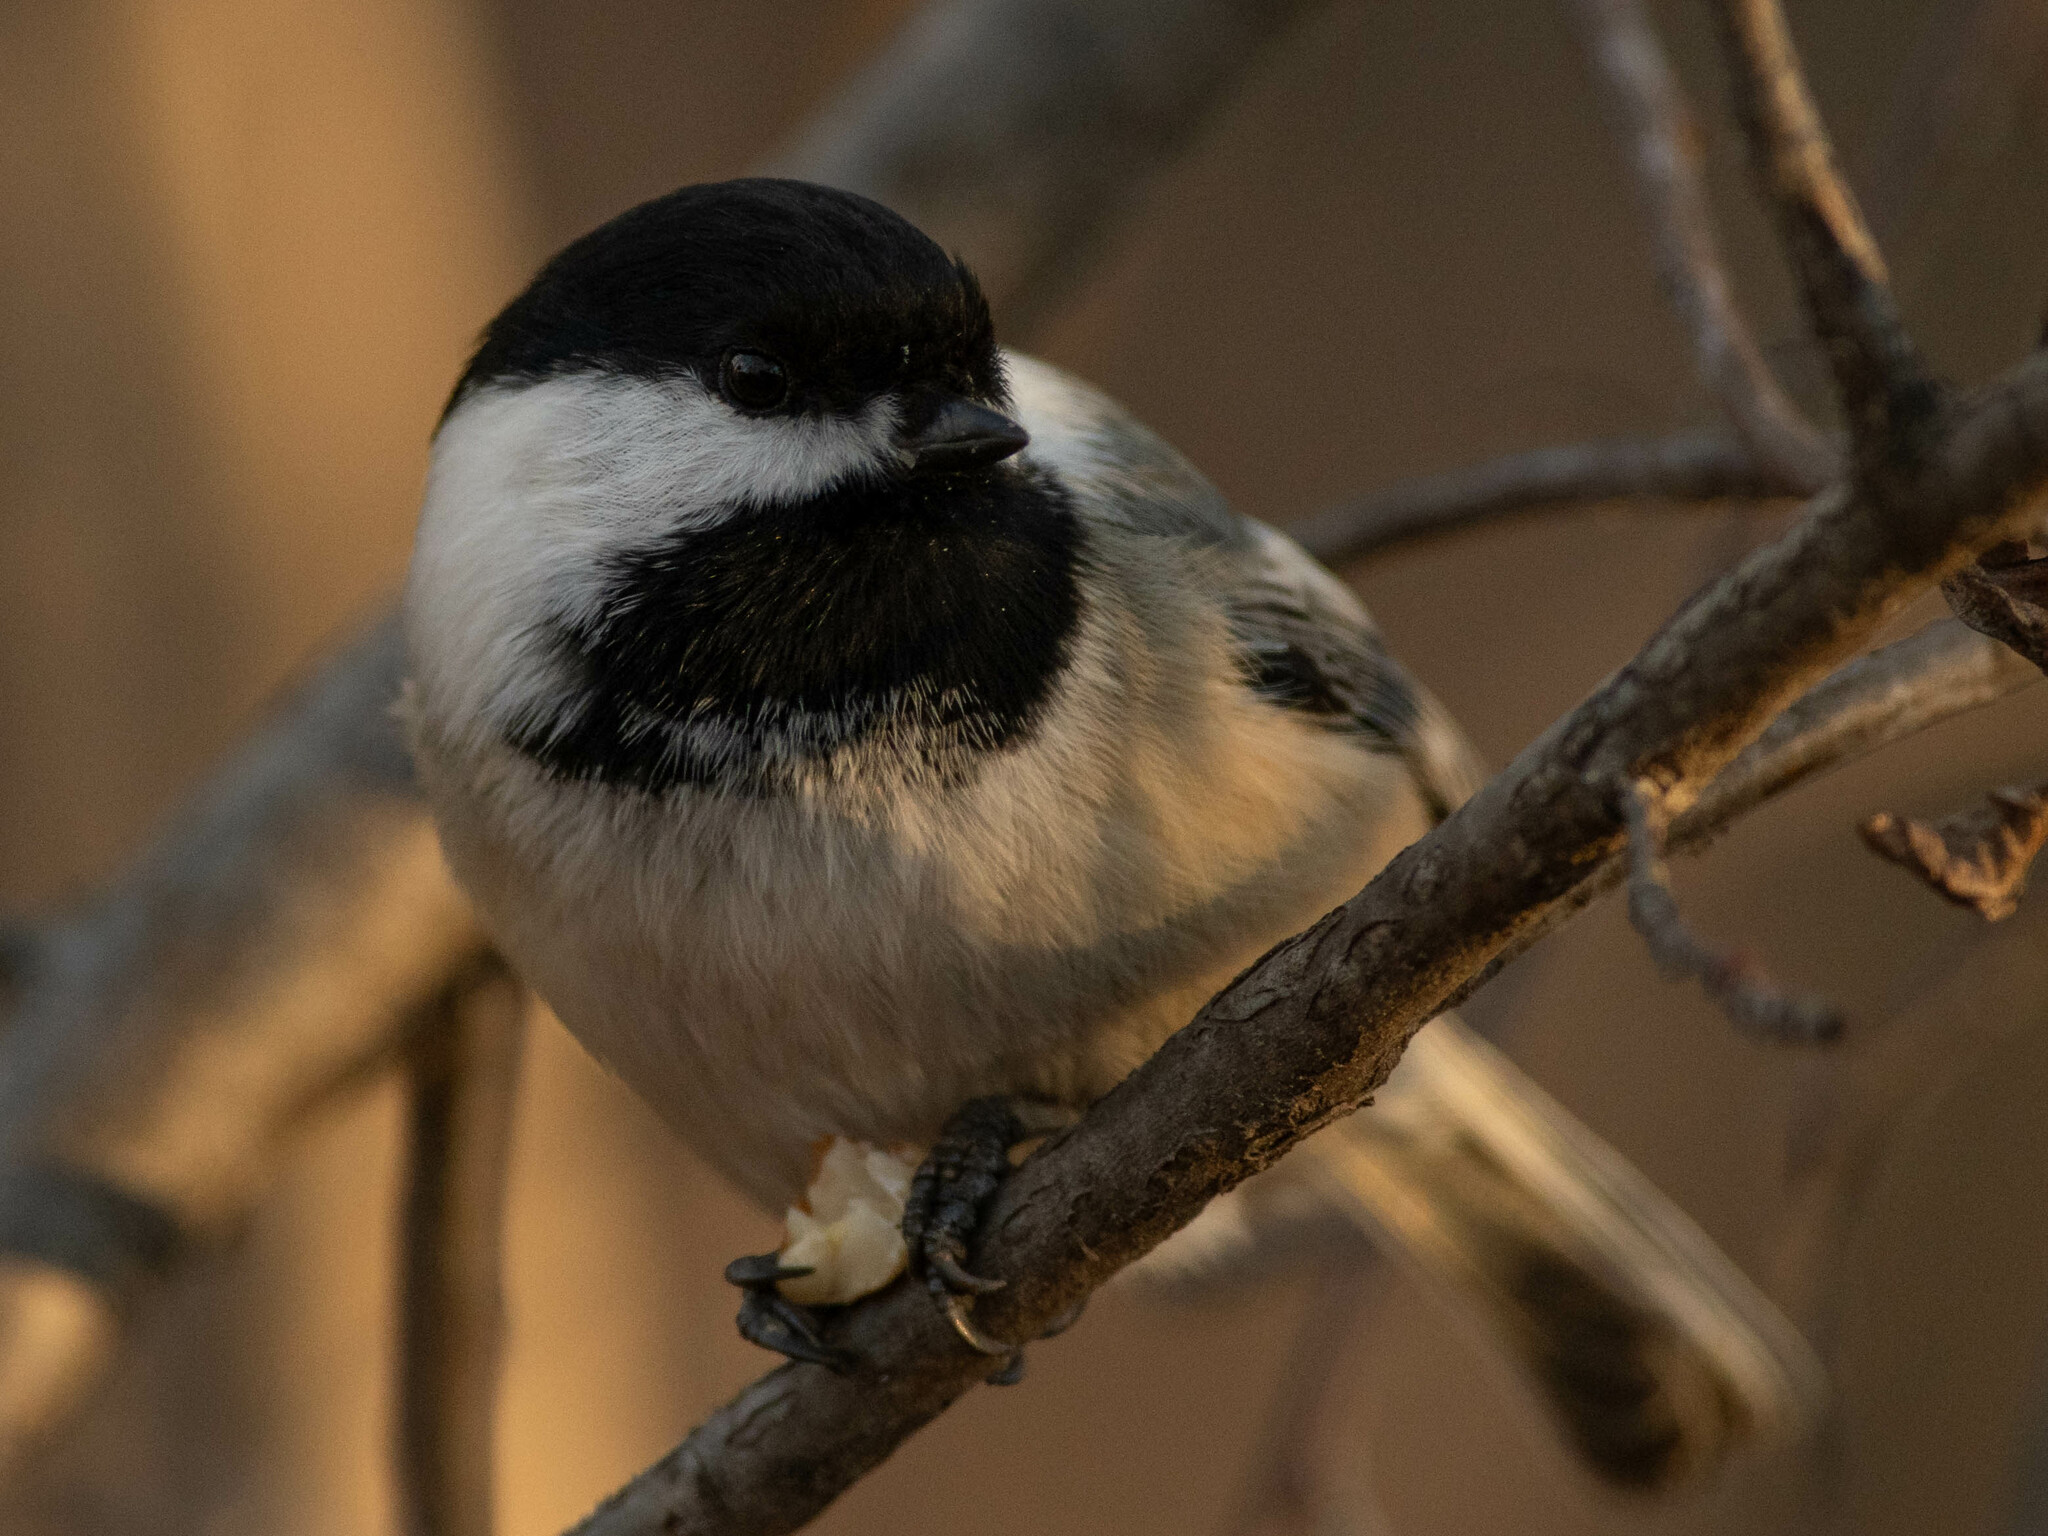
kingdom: Animalia
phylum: Chordata
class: Aves
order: Passeriformes
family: Paridae
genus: Poecile
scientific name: Poecile atricapillus
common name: Black-capped chickadee
